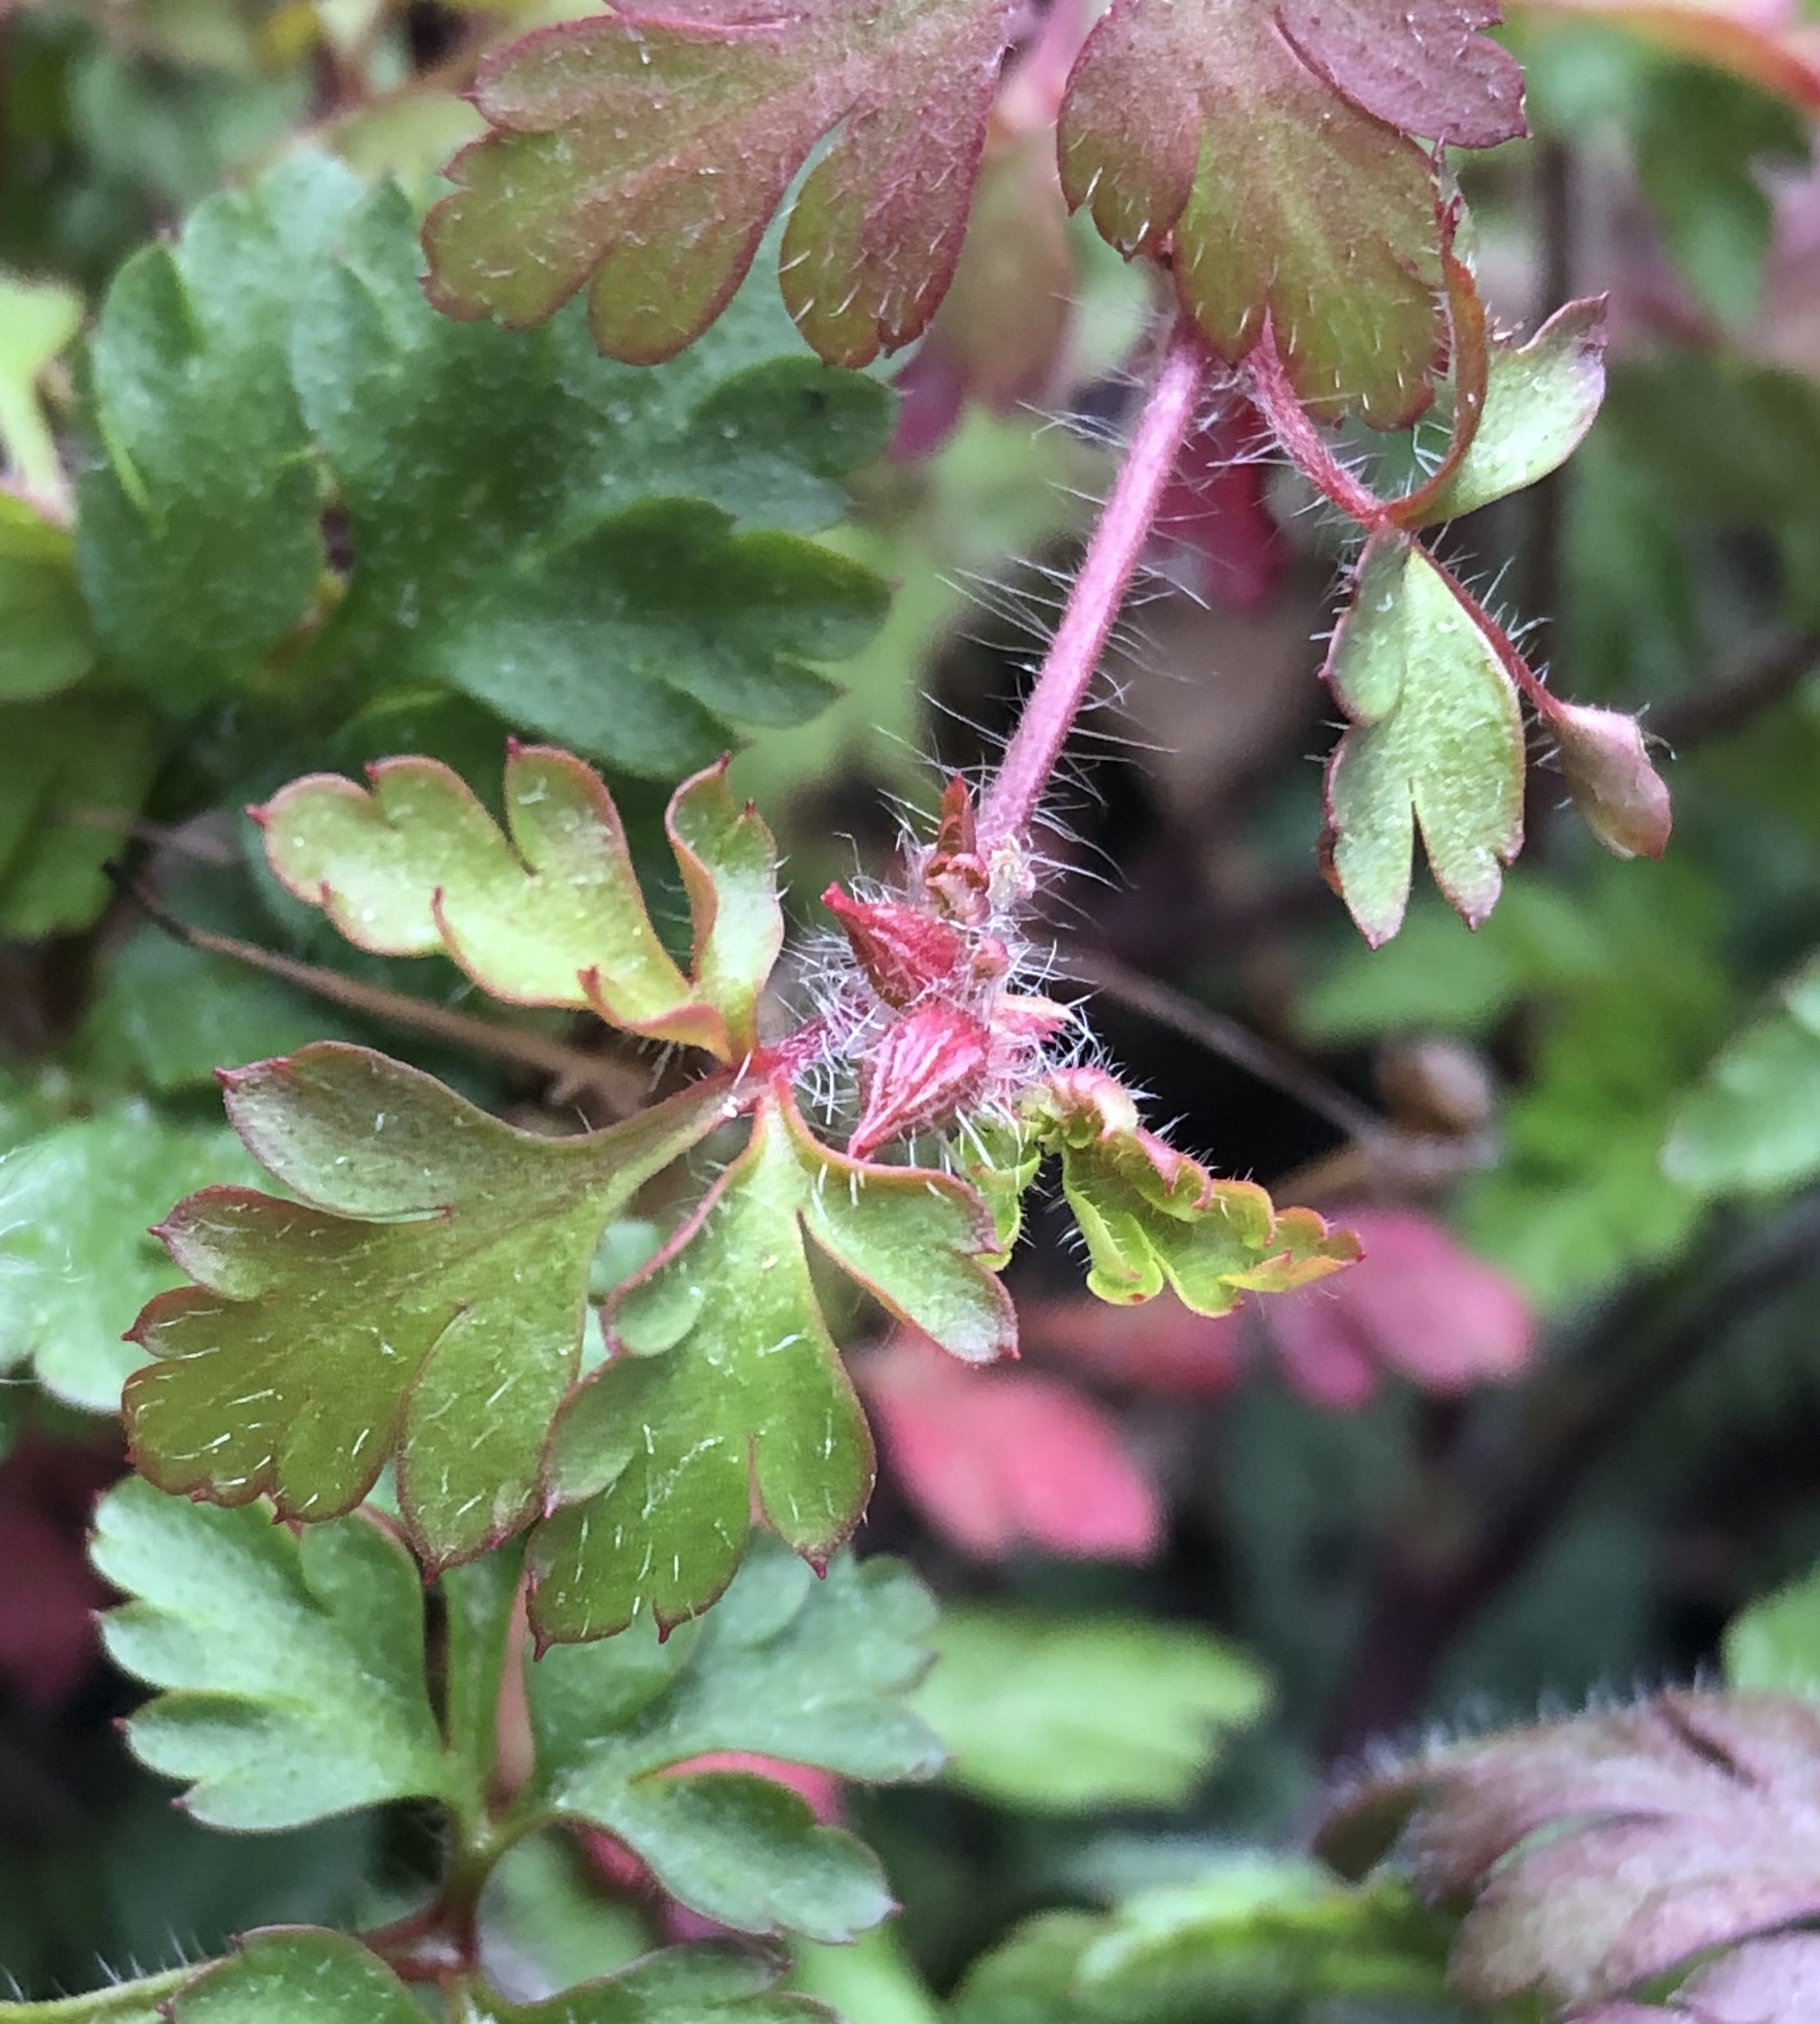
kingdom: Plantae
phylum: Tracheophyta
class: Magnoliopsida
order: Geraniales
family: Geraniaceae
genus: Geranium
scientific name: Geranium robertianum
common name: Herb-robert
